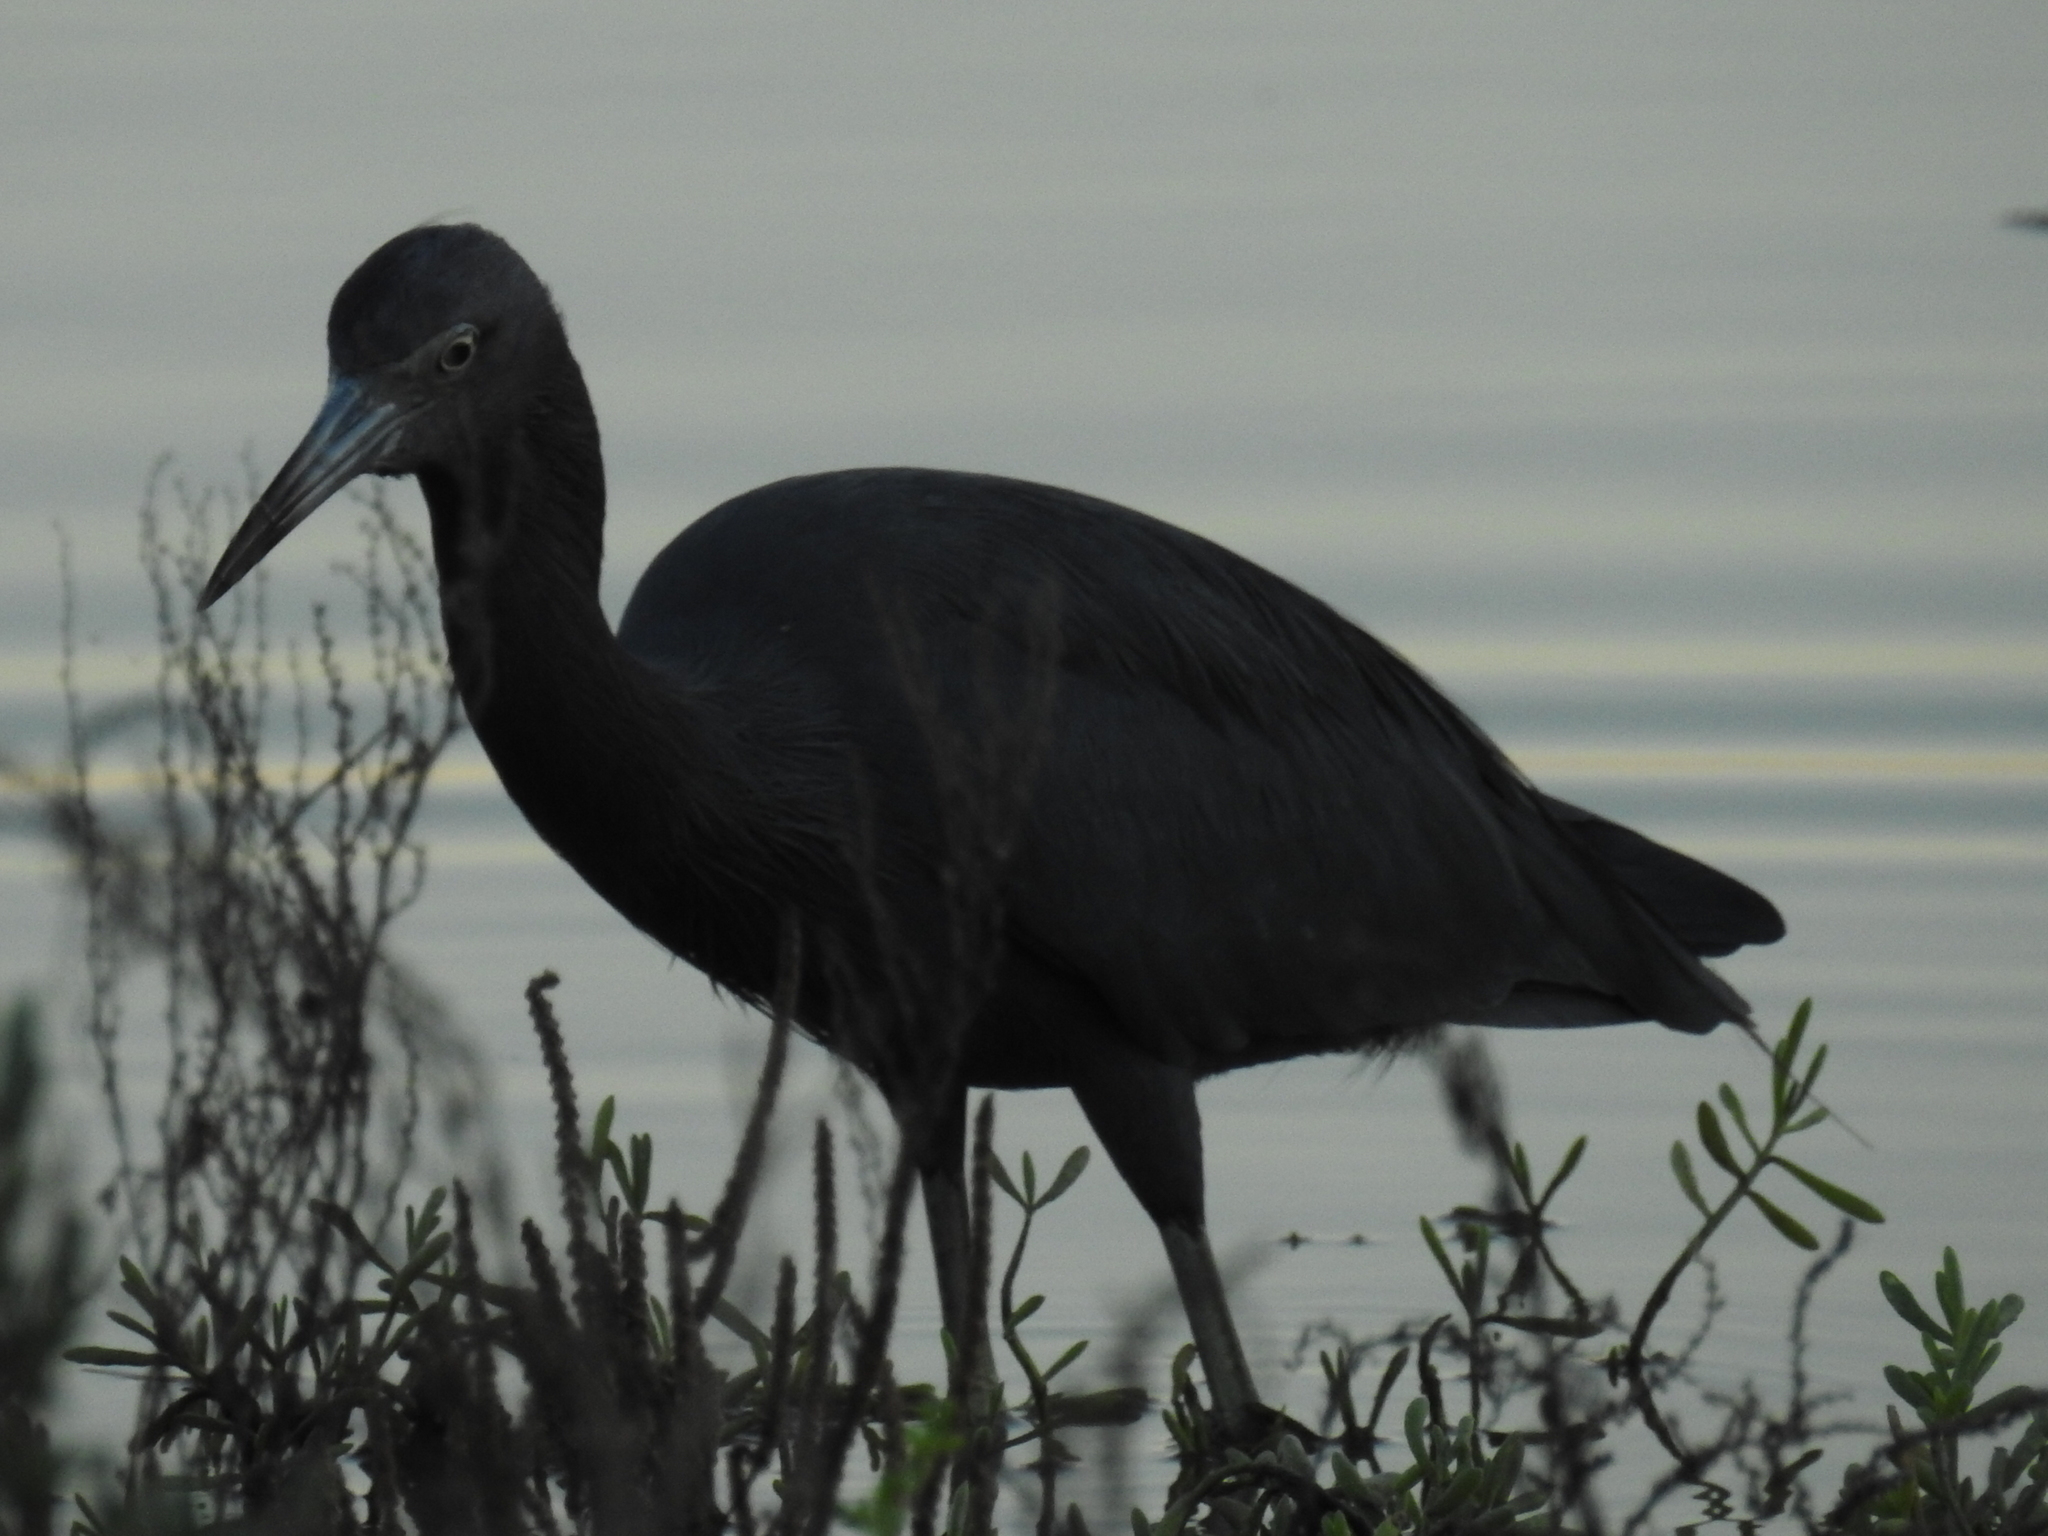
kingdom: Animalia
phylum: Chordata
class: Aves
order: Pelecaniformes
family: Ardeidae
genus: Egretta
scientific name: Egretta caerulea
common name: Little blue heron
